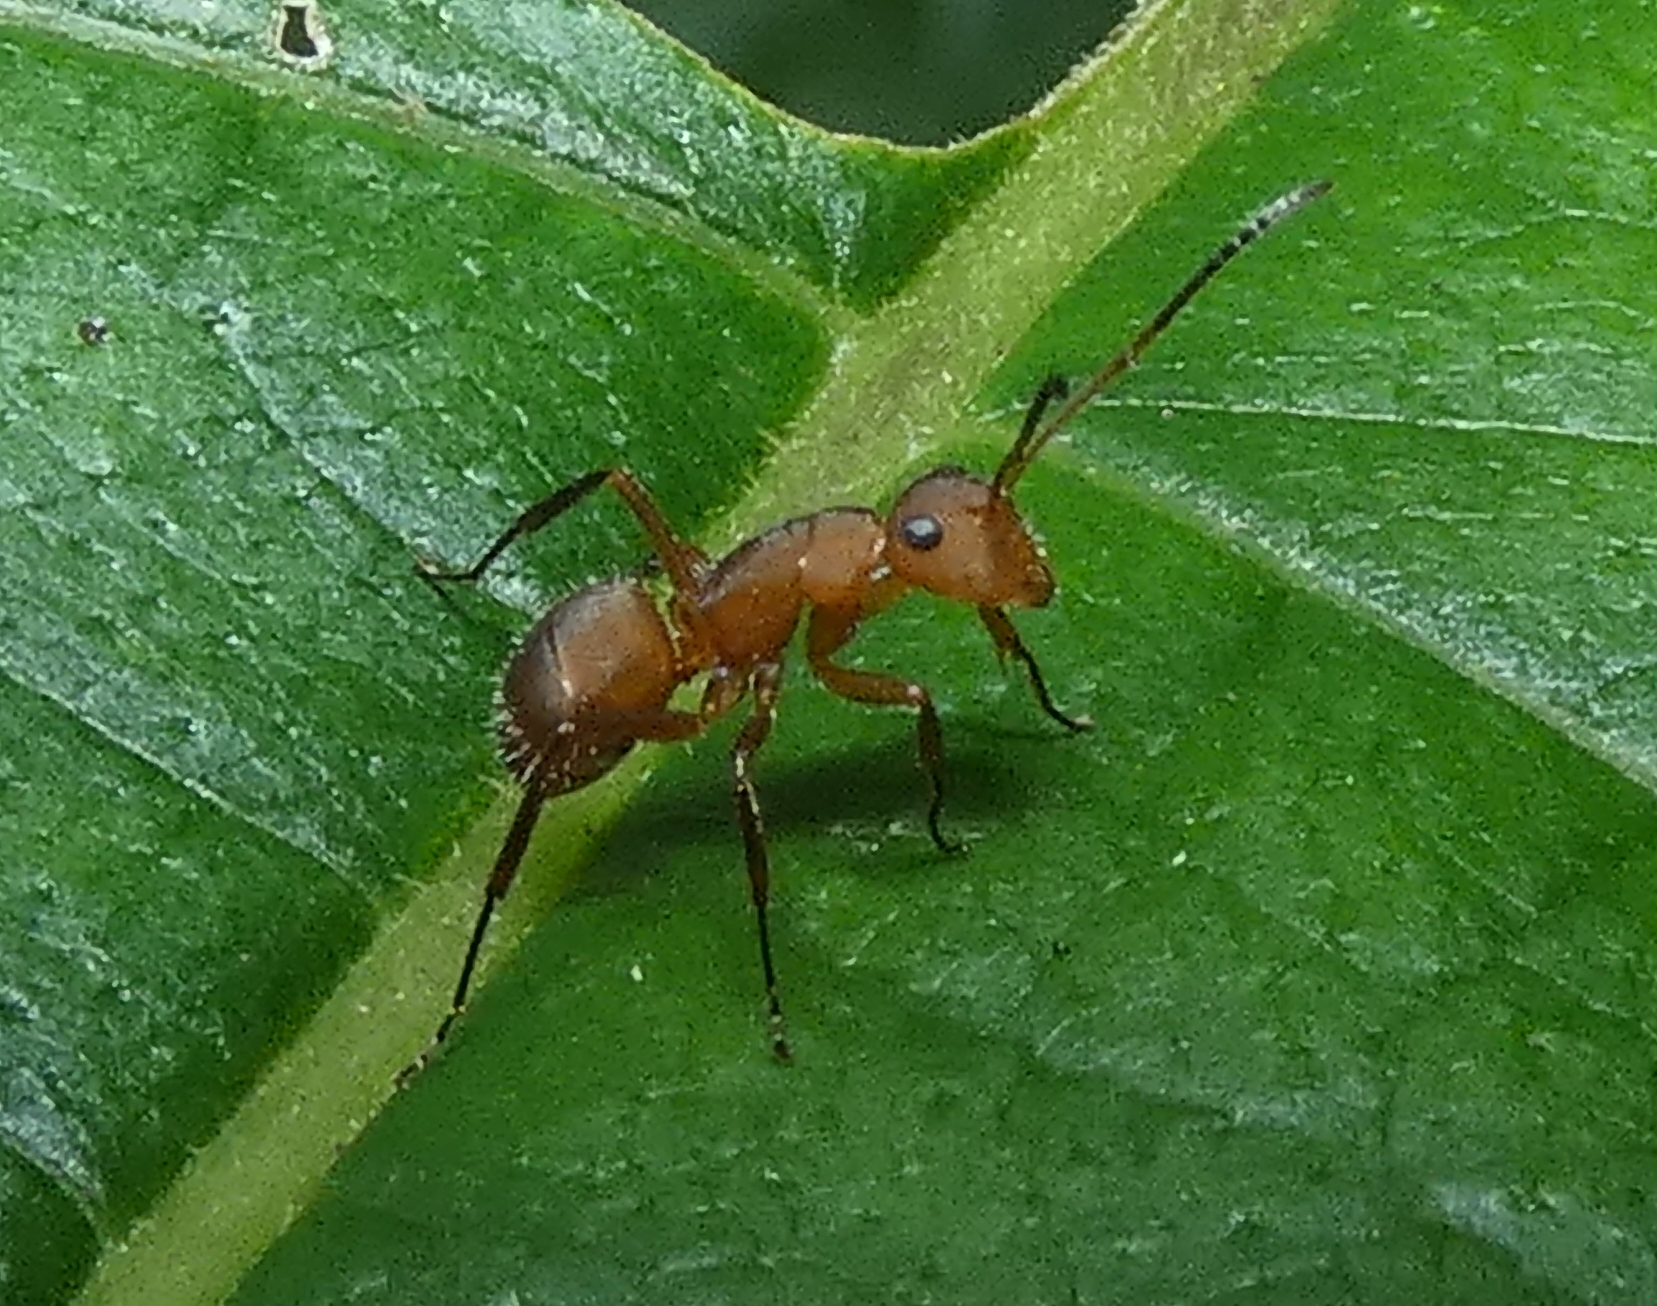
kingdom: Animalia
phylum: Arthropoda
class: Insecta
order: Hymenoptera
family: Formicidae
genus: Camponotus
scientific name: Camponotus rectangularis
